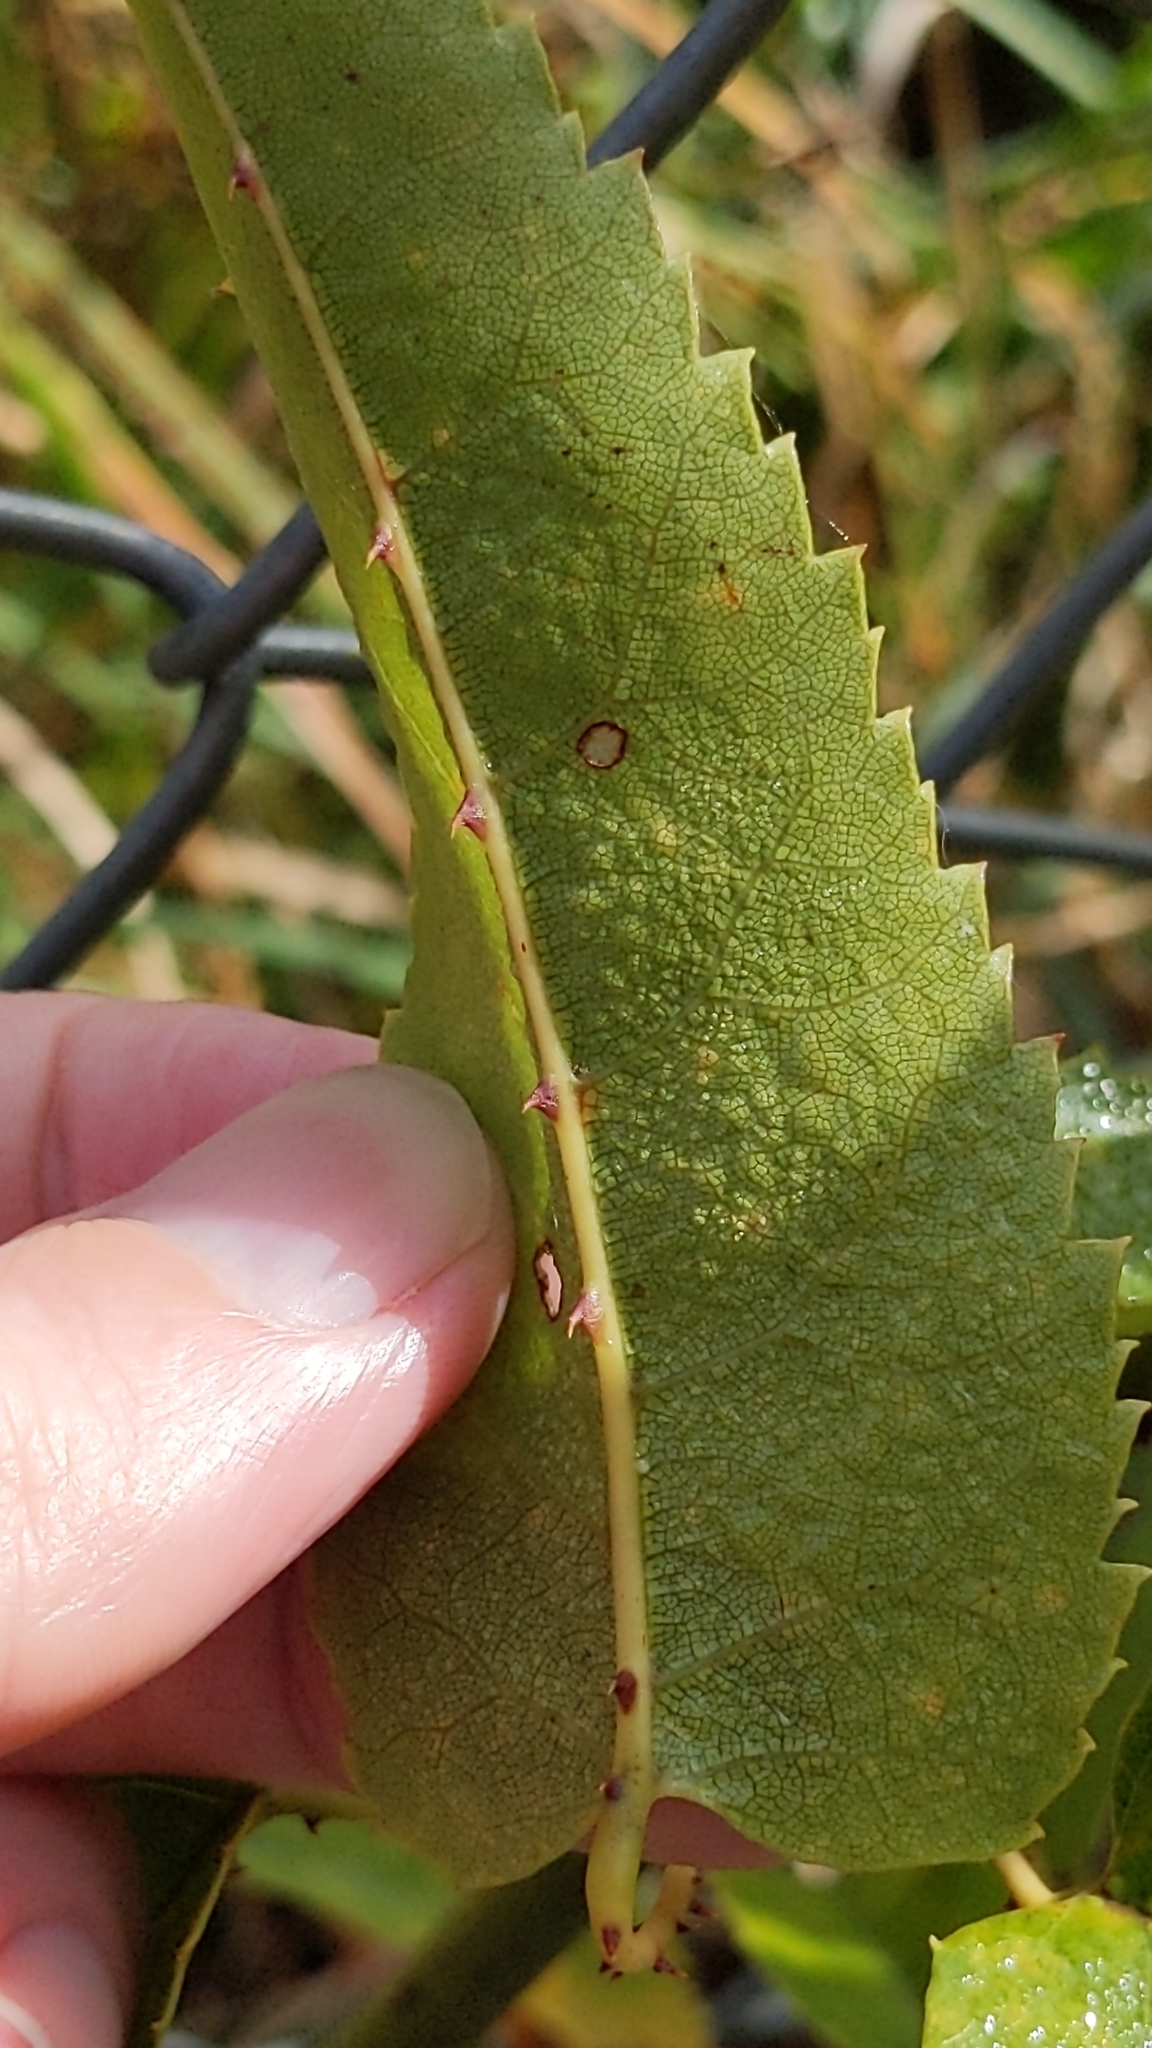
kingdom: Plantae
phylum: Tracheophyta
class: Magnoliopsida
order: Rosales
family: Rosaceae
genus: Rubus
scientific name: Rubus cissoides
